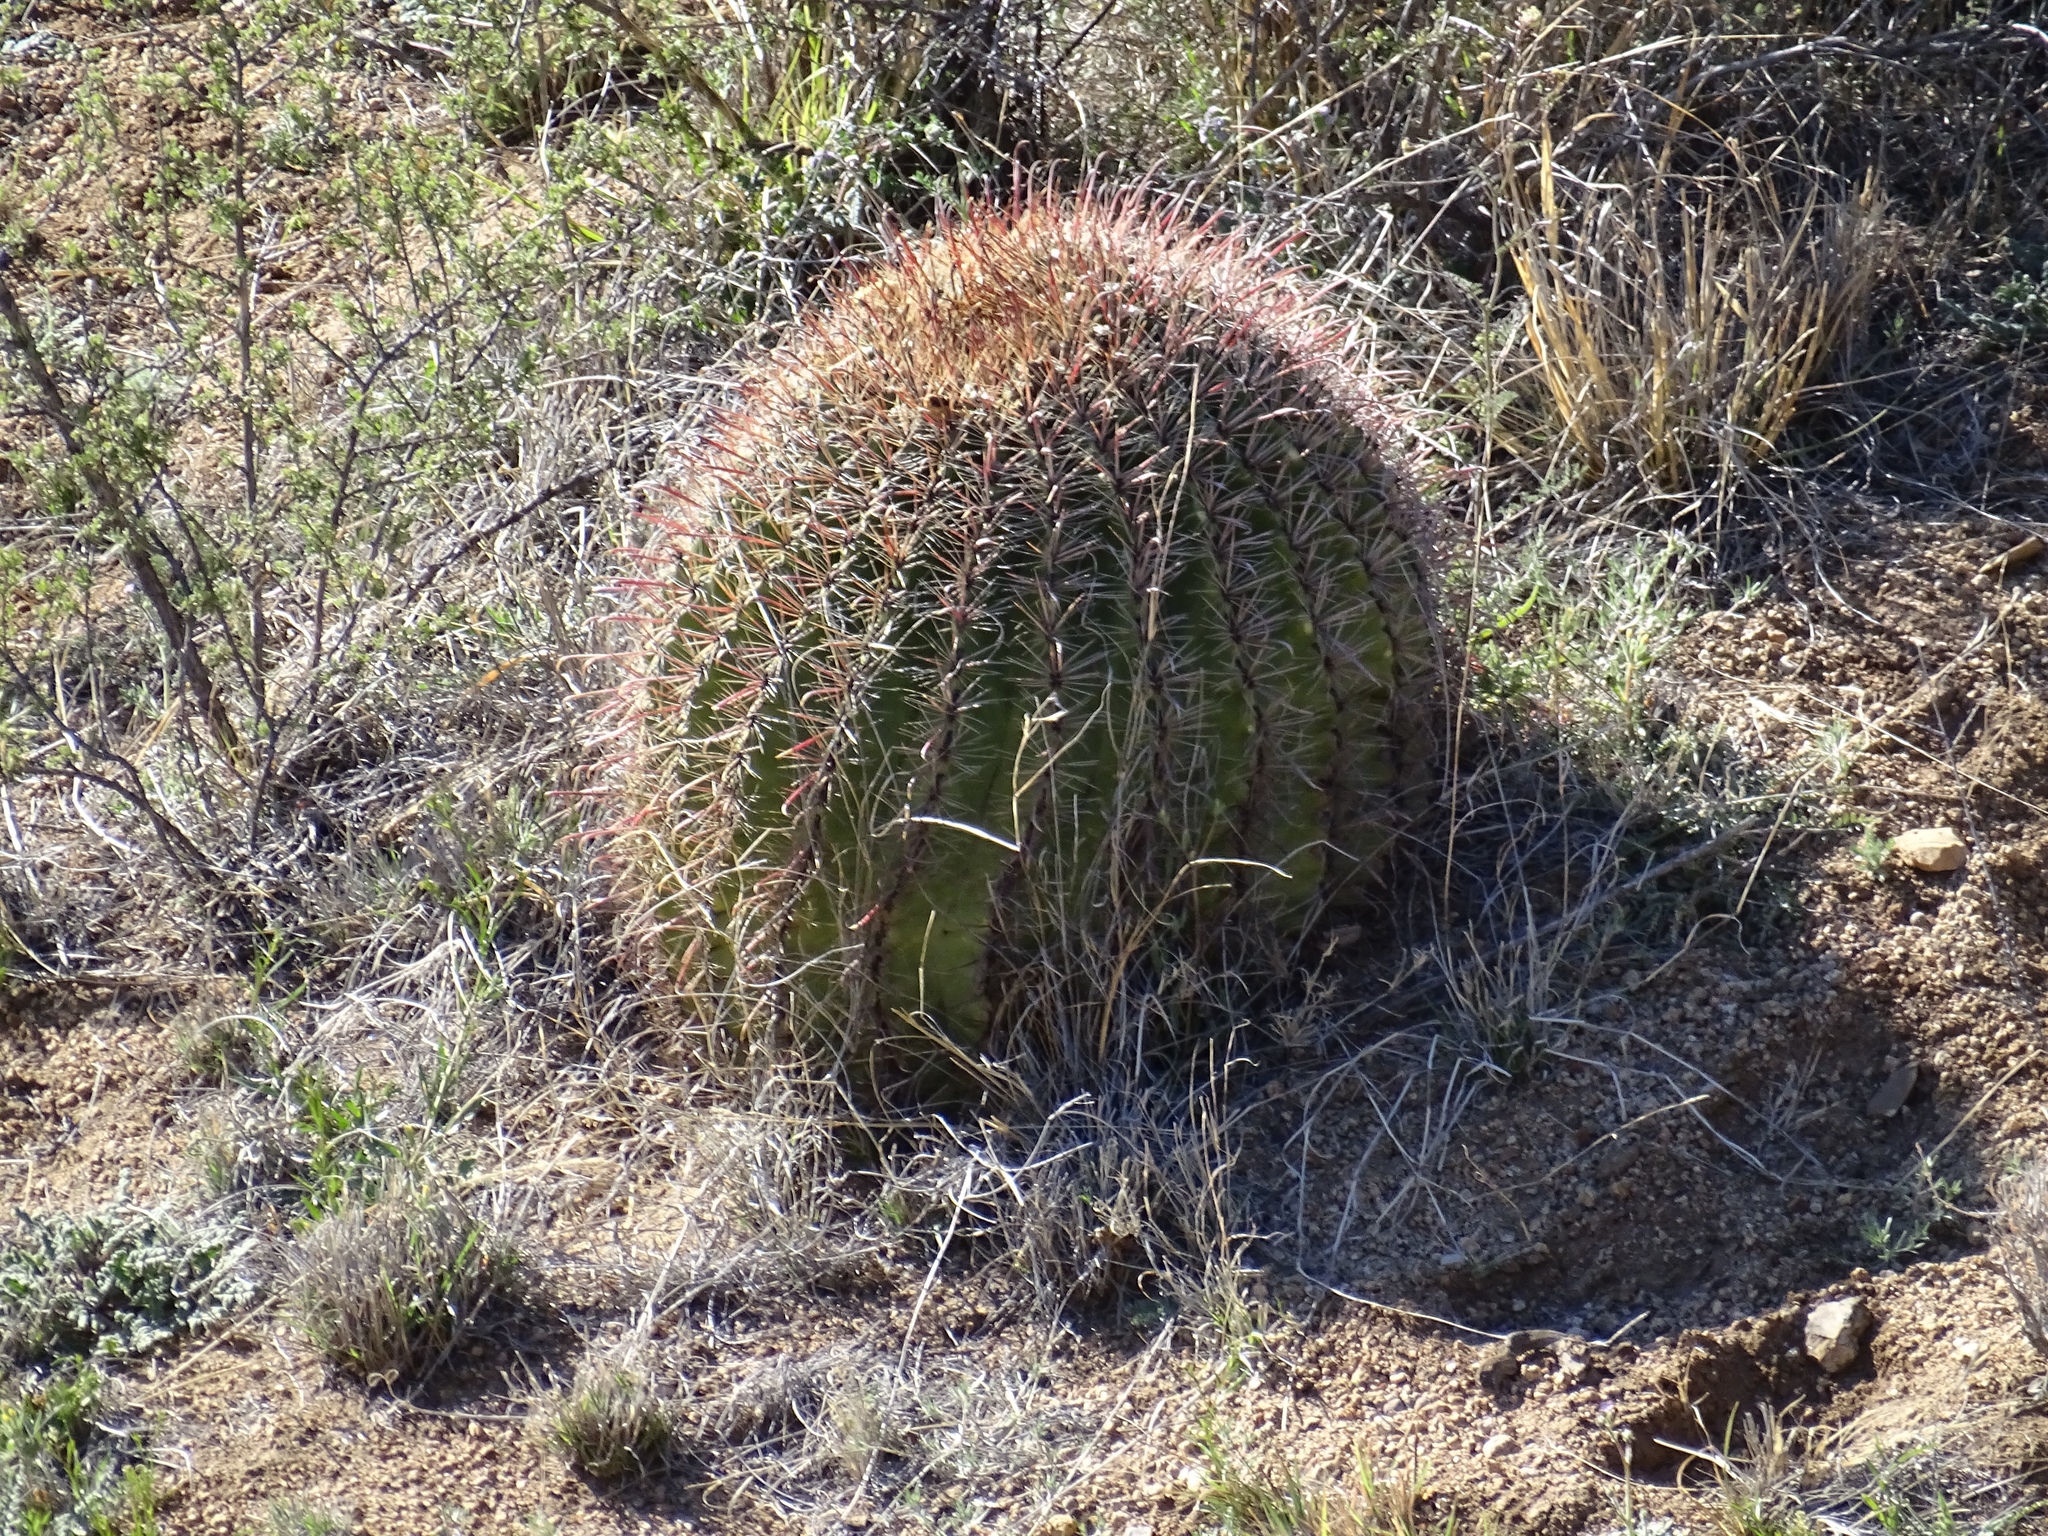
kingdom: Plantae
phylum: Tracheophyta
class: Magnoliopsida
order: Caryophyllales
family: Cactaceae
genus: Ferocactus
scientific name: Ferocactus wislizeni
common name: Candy barrel cactus
